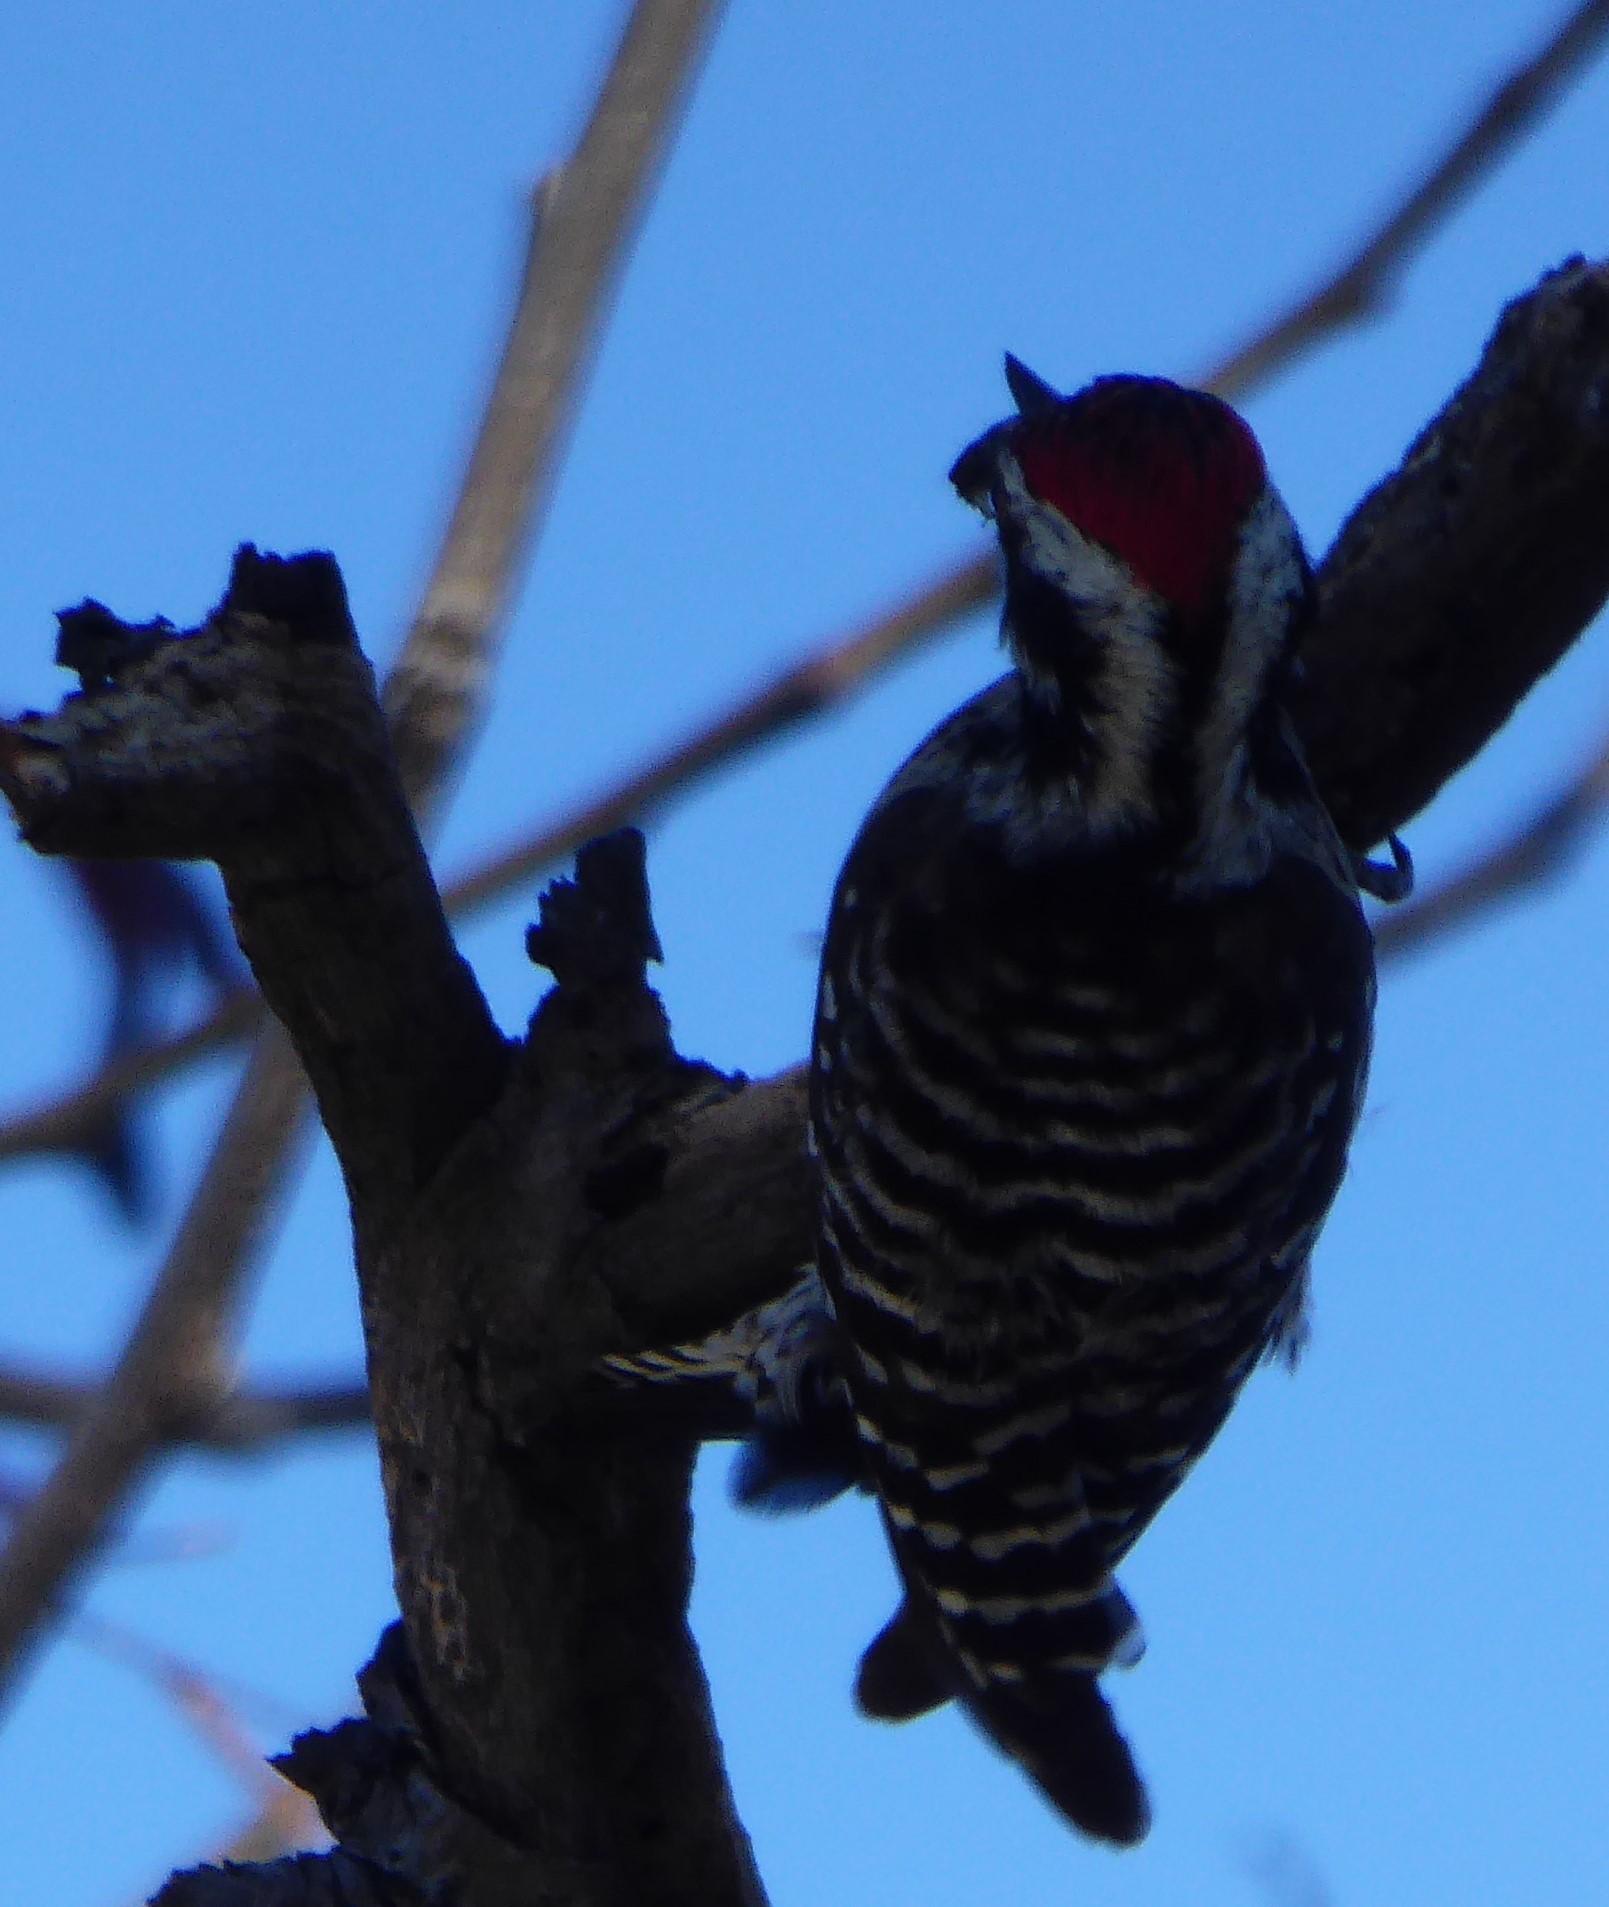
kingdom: Animalia
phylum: Chordata
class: Aves
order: Piciformes
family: Picidae
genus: Dryobates
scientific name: Dryobates scalaris
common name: Ladder-backed woodpecker
